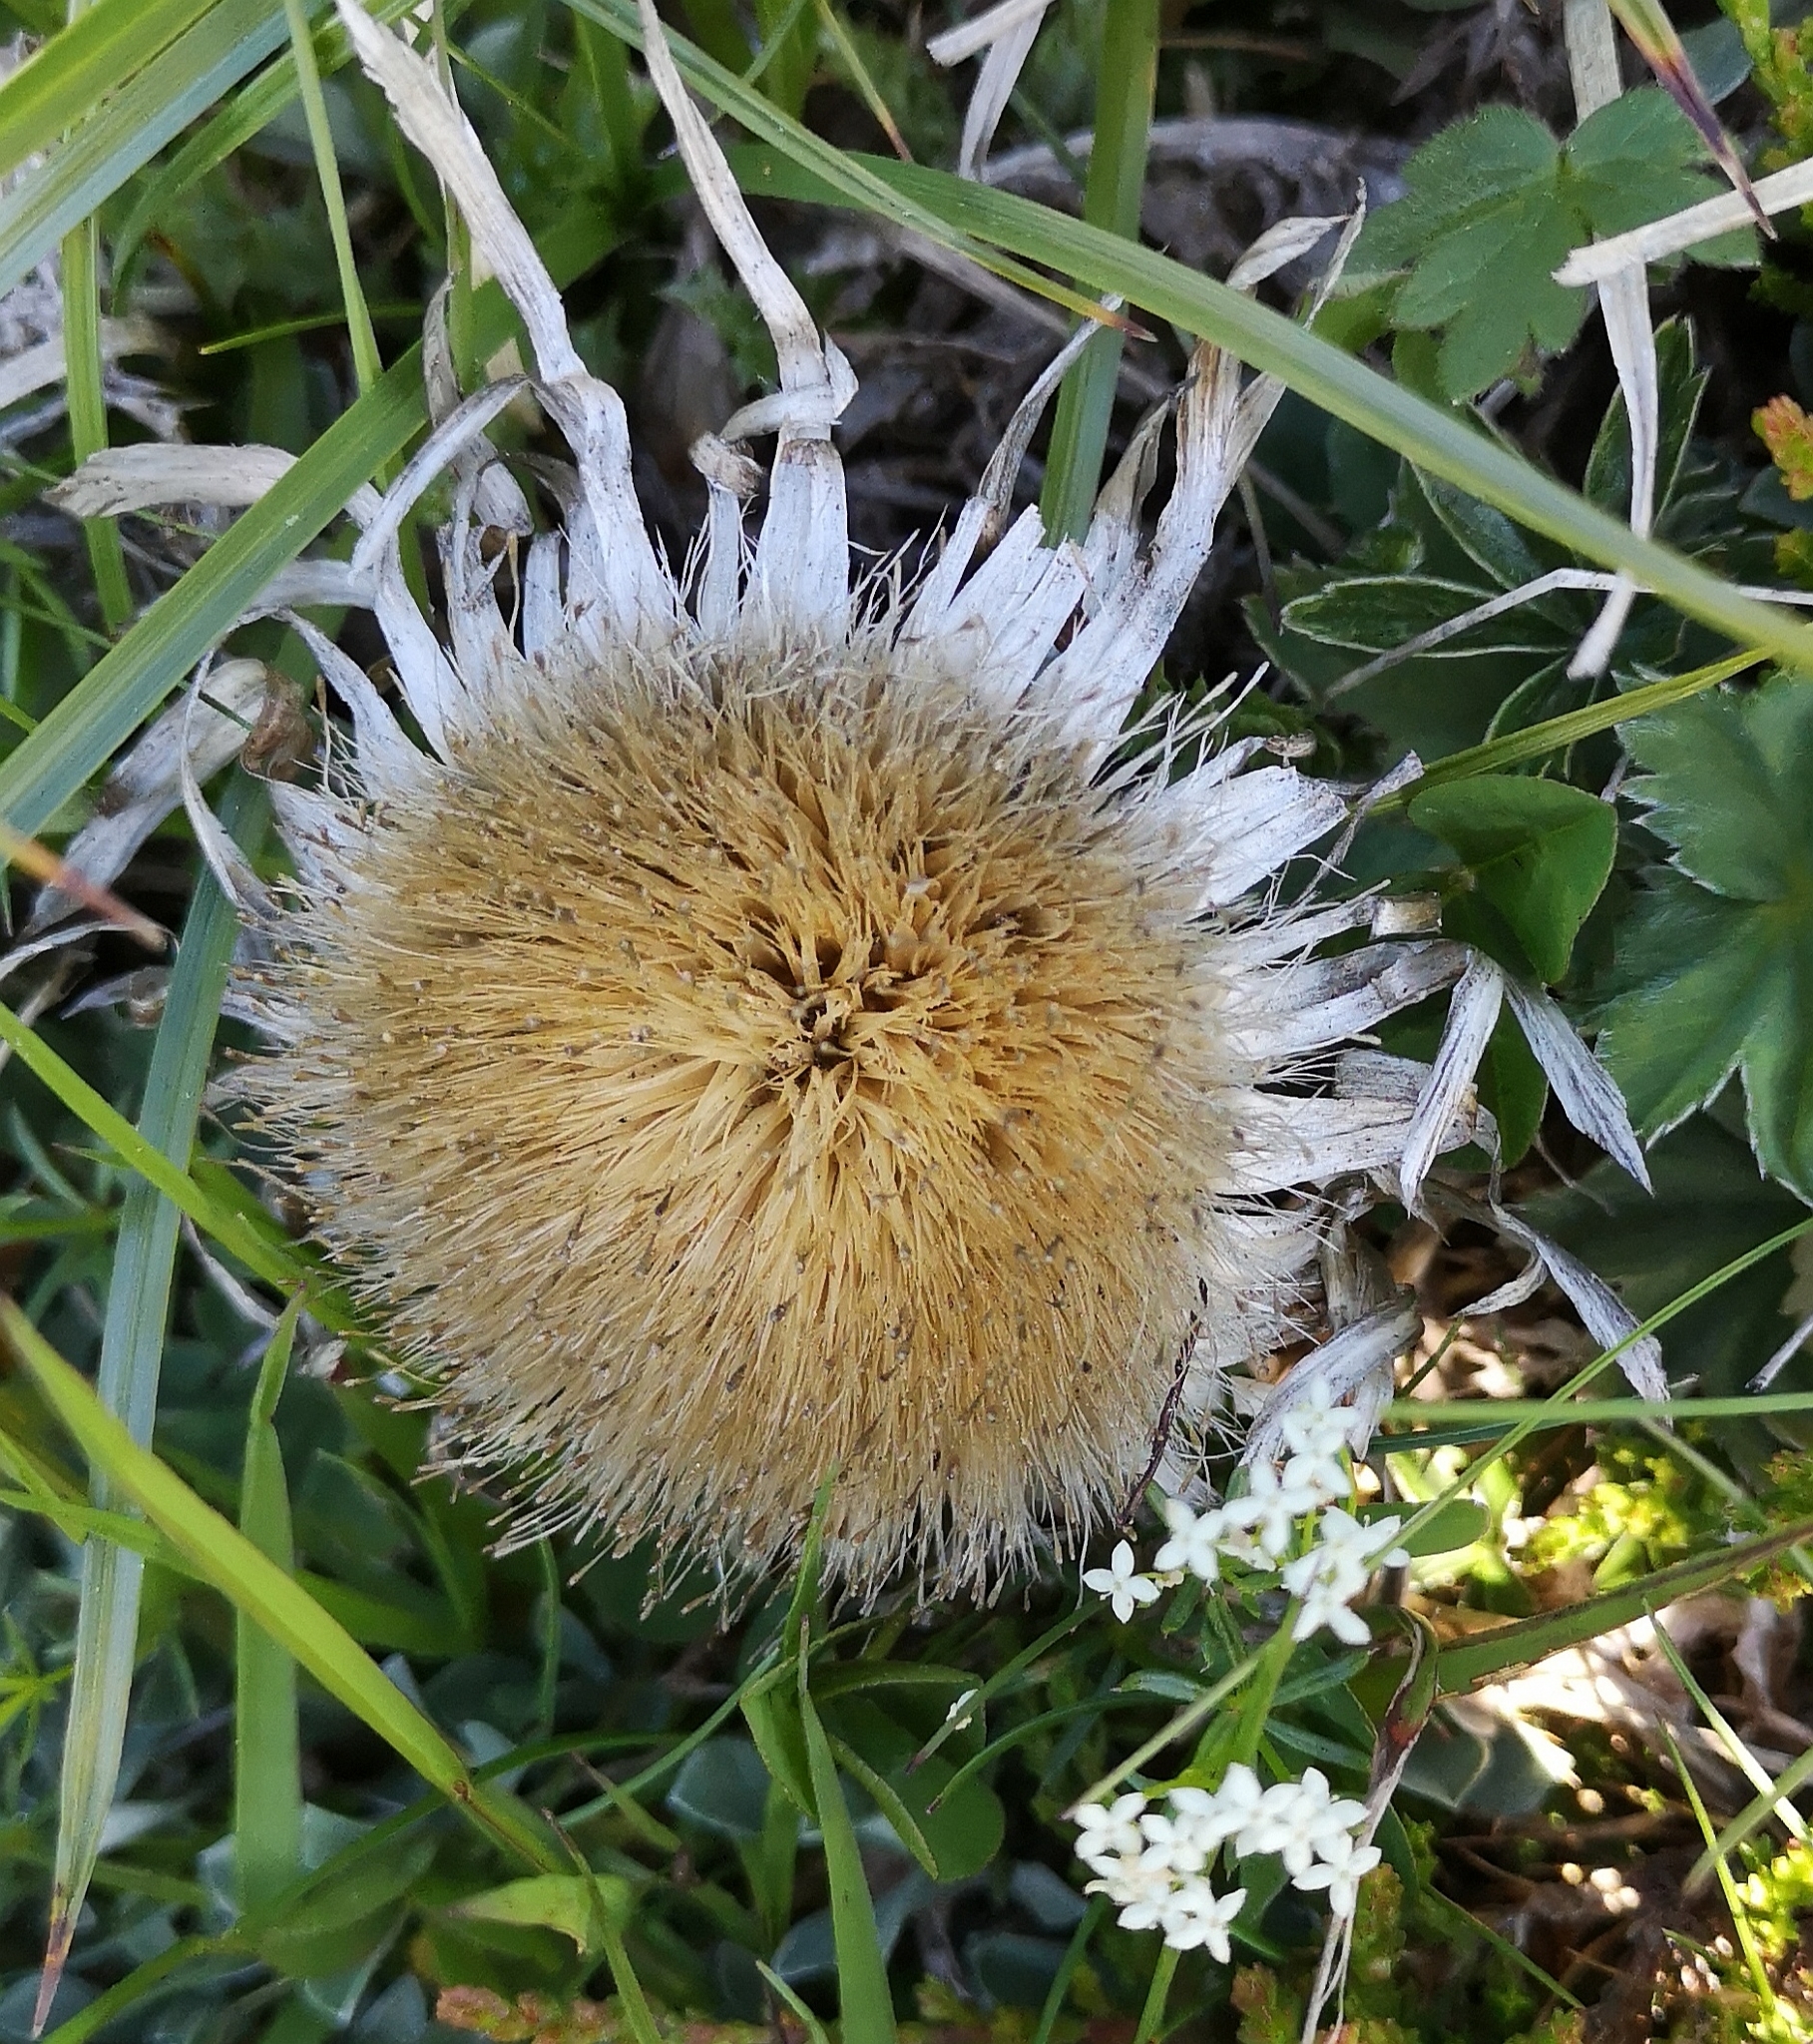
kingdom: Plantae
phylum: Tracheophyta
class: Magnoliopsida
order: Asterales
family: Asteraceae
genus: Carlina
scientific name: Carlina acaulis
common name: Stemless carline thistle
